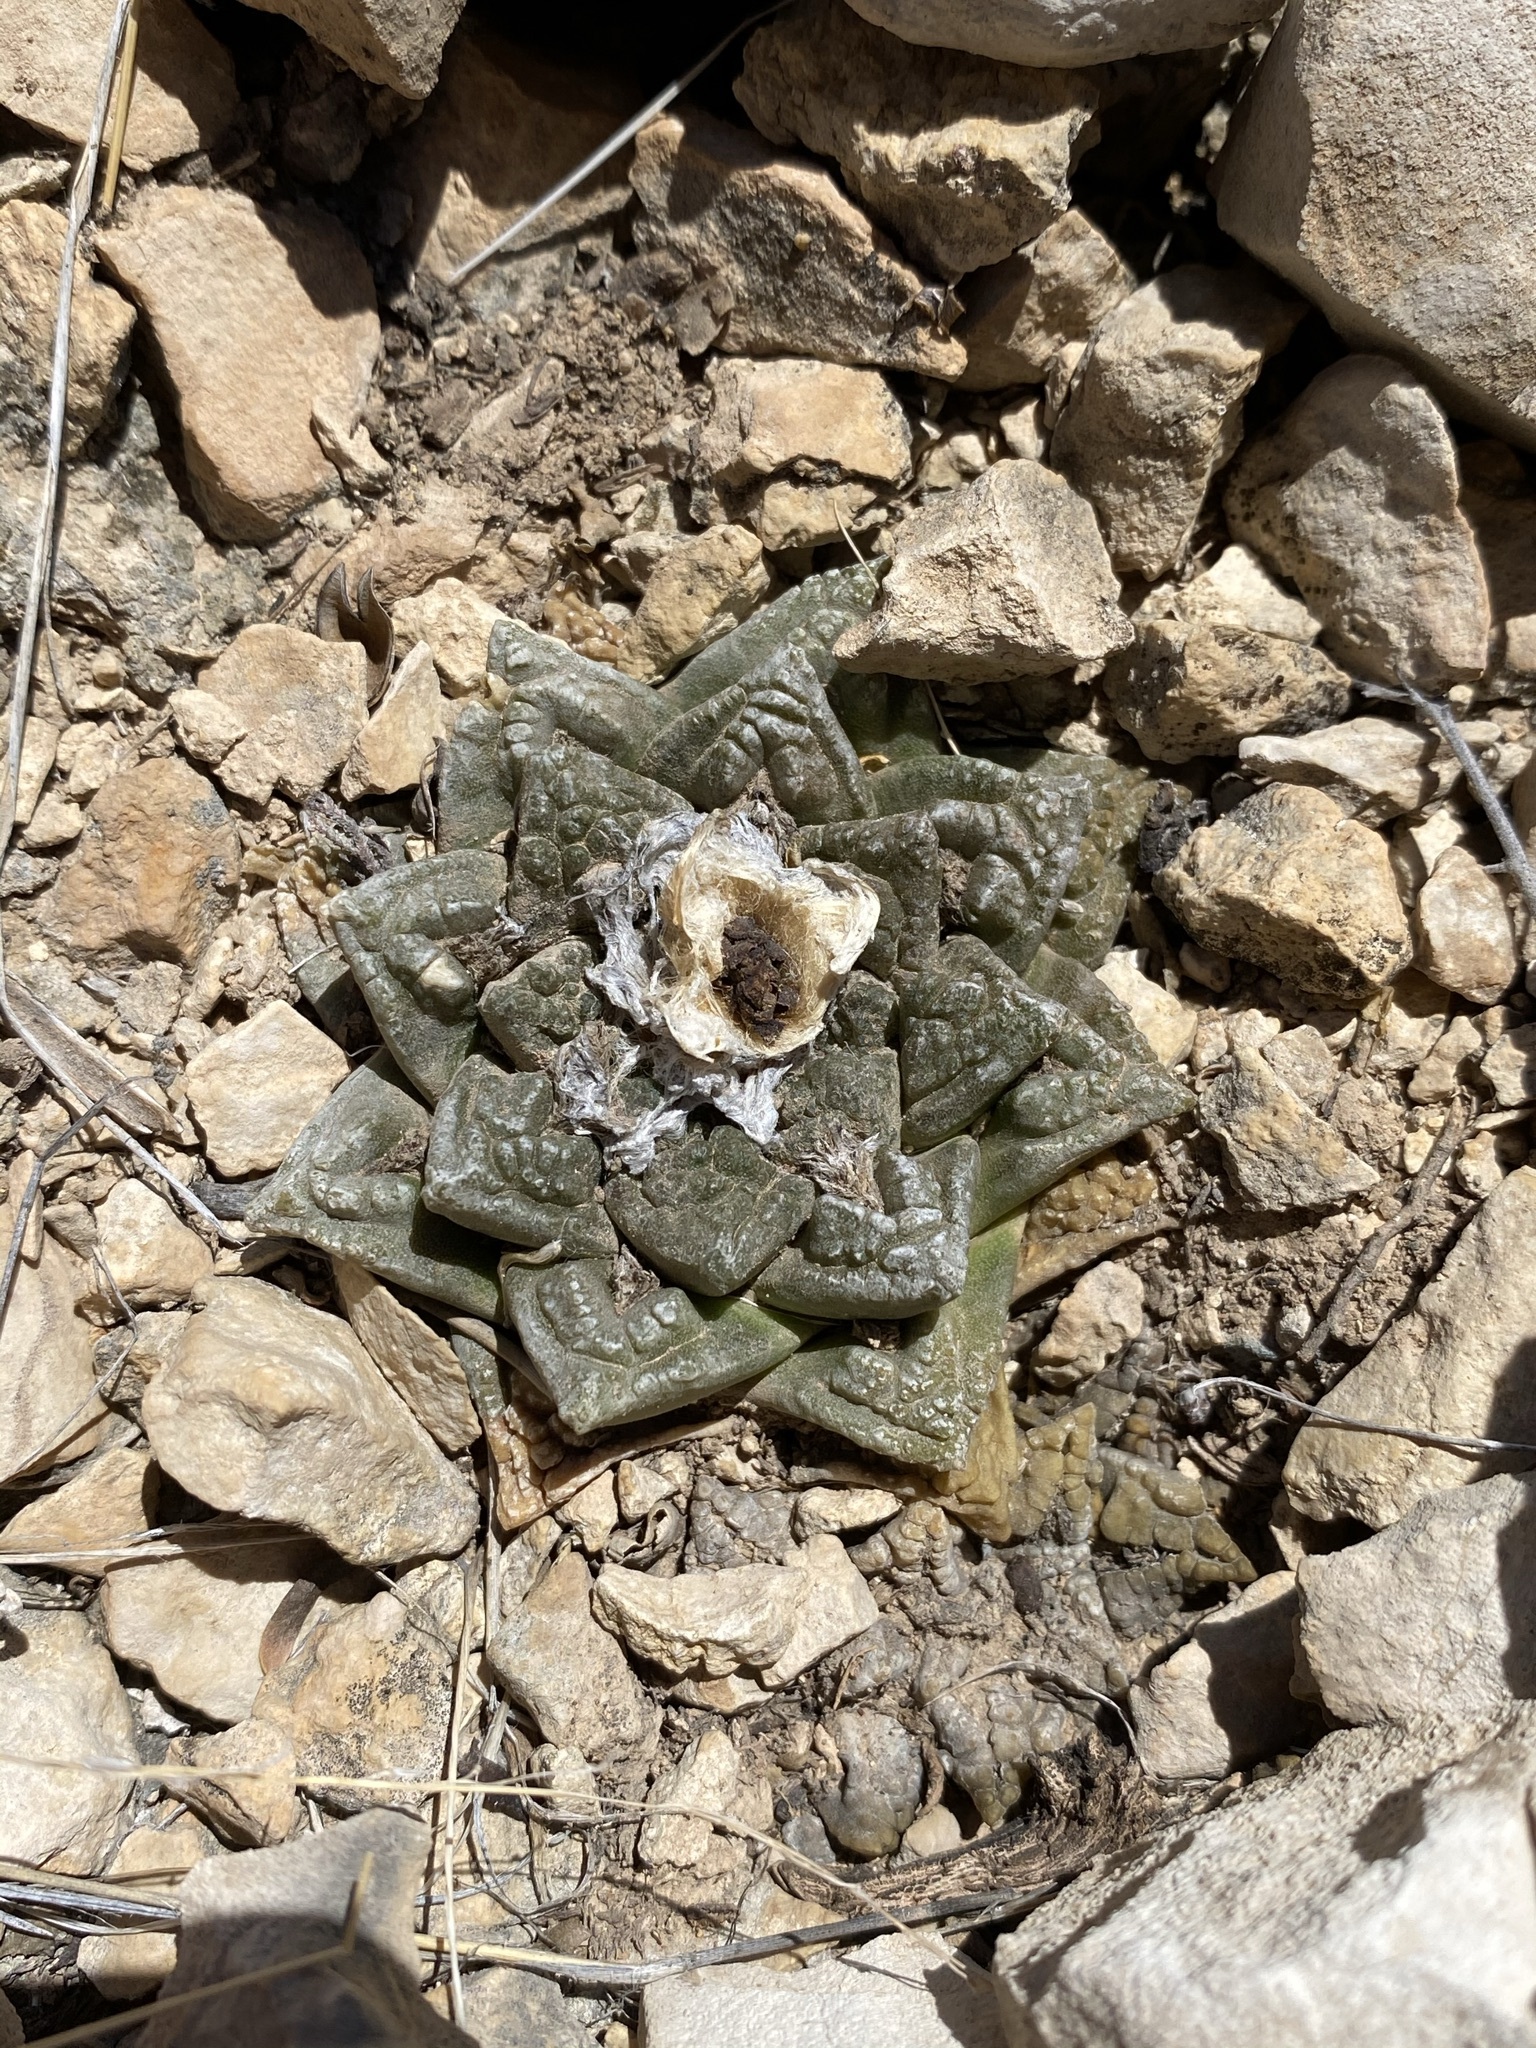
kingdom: Plantae
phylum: Tracheophyta
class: Magnoliopsida
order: Caryophyllales
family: Cactaceae
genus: Ariocarpus
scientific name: Ariocarpus fissuratus
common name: Chautle-living rock
